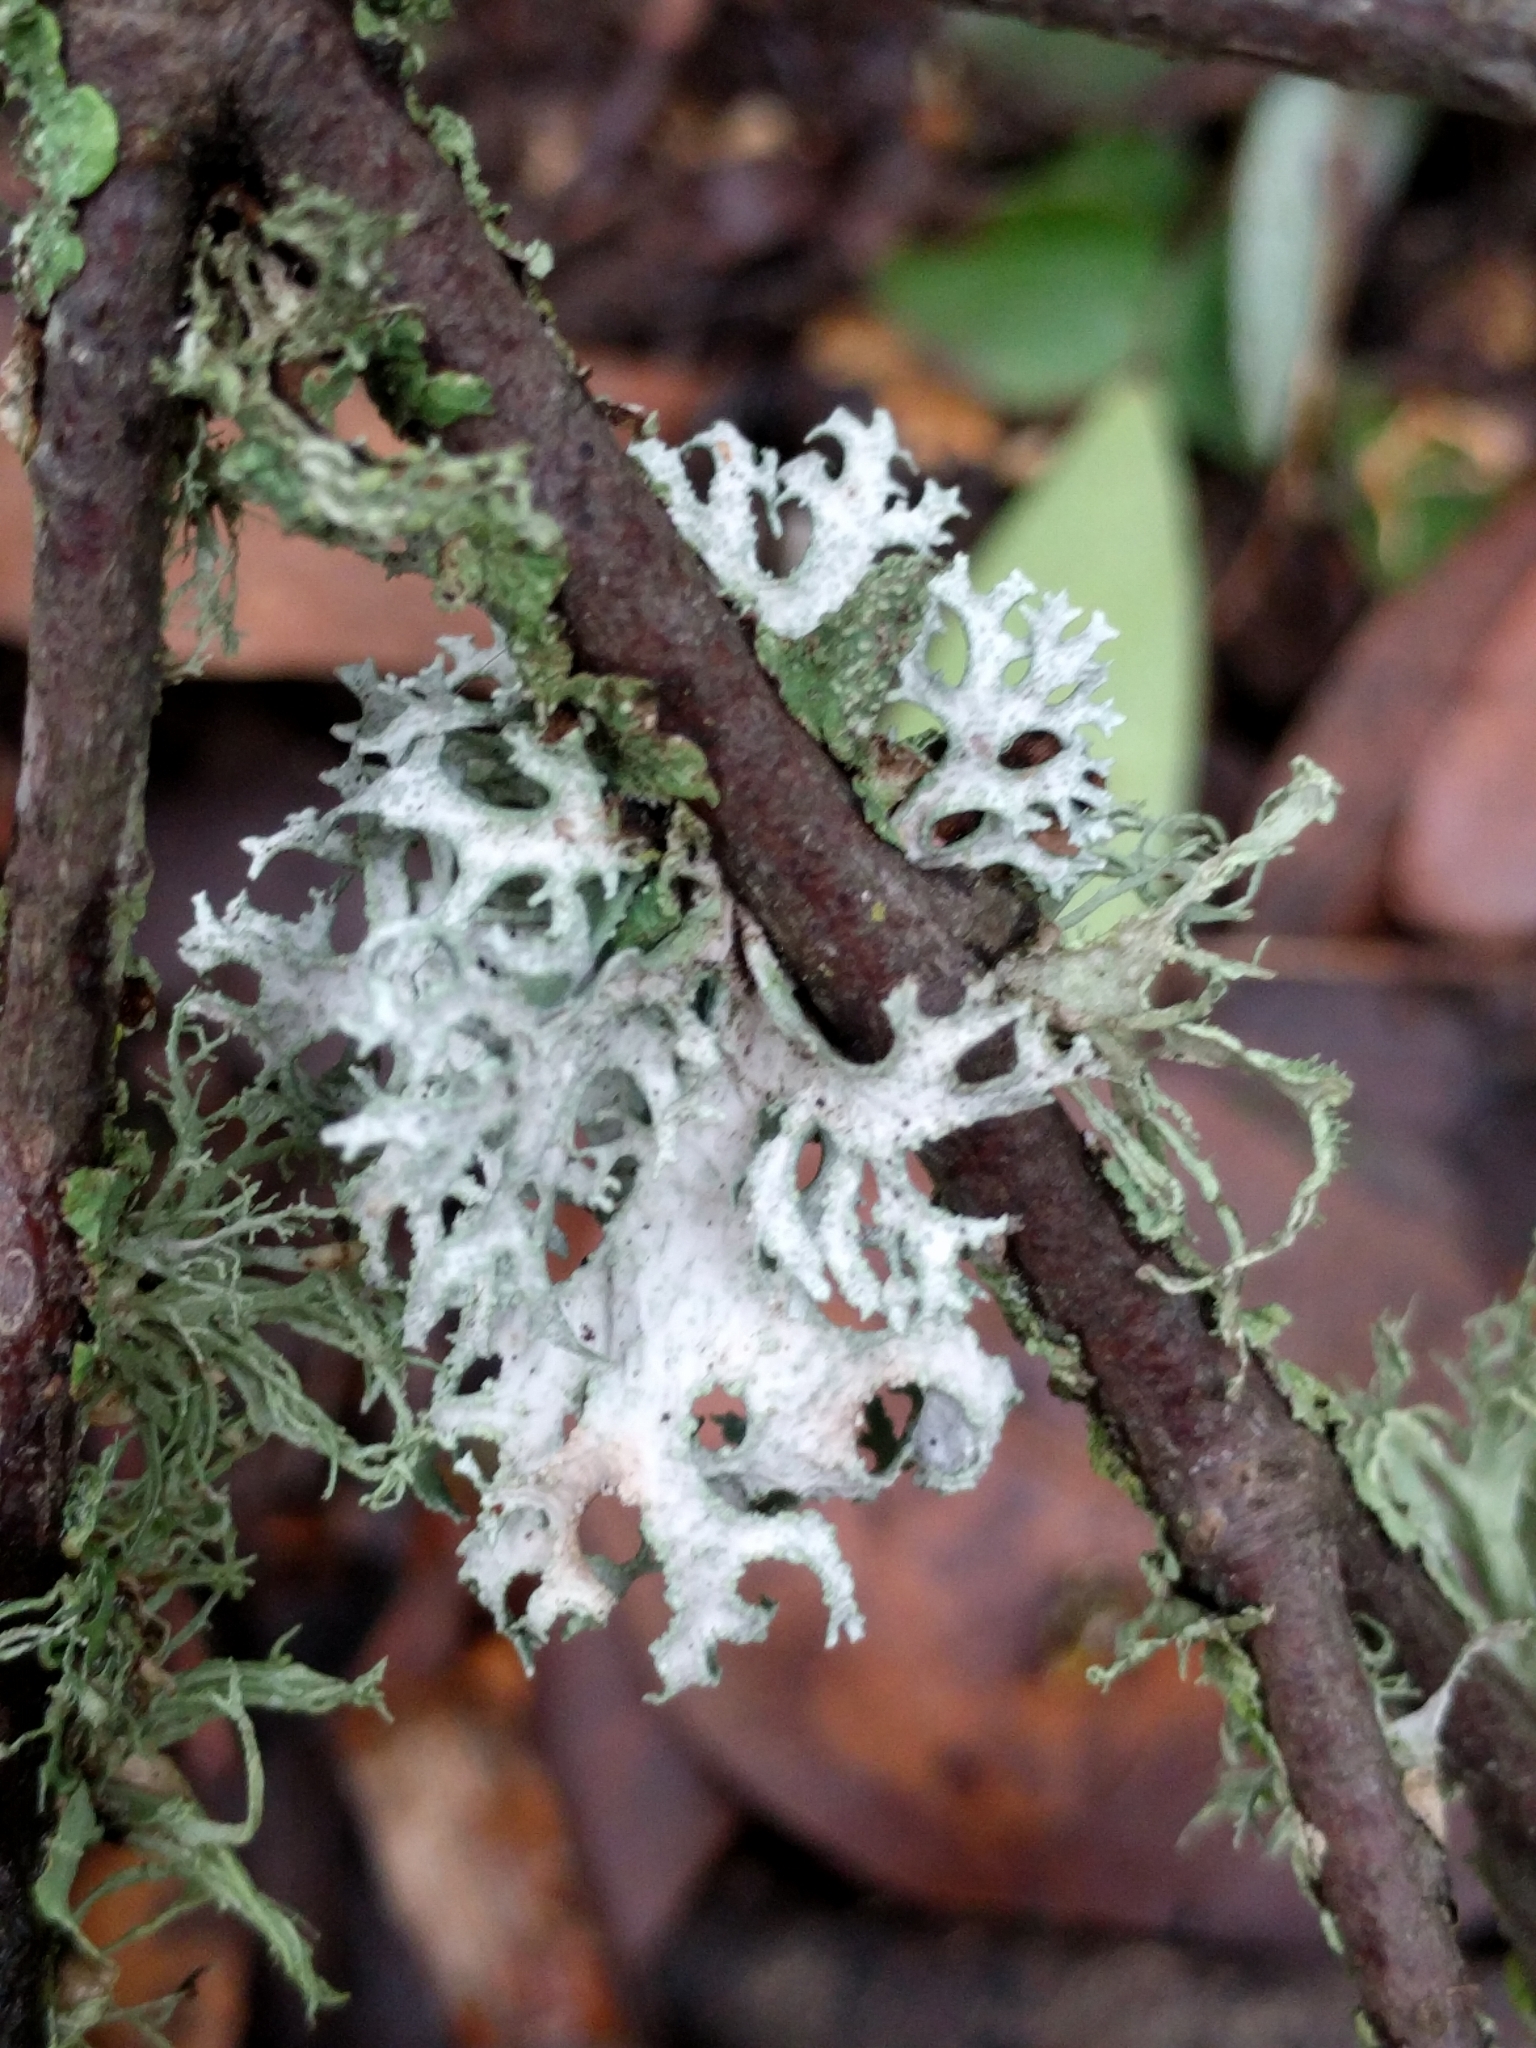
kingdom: Fungi
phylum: Ascomycota
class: Lecanoromycetes
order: Lecanorales
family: Parmeliaceae
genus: Evernia
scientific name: Evernia prunastri
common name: Oak moss
